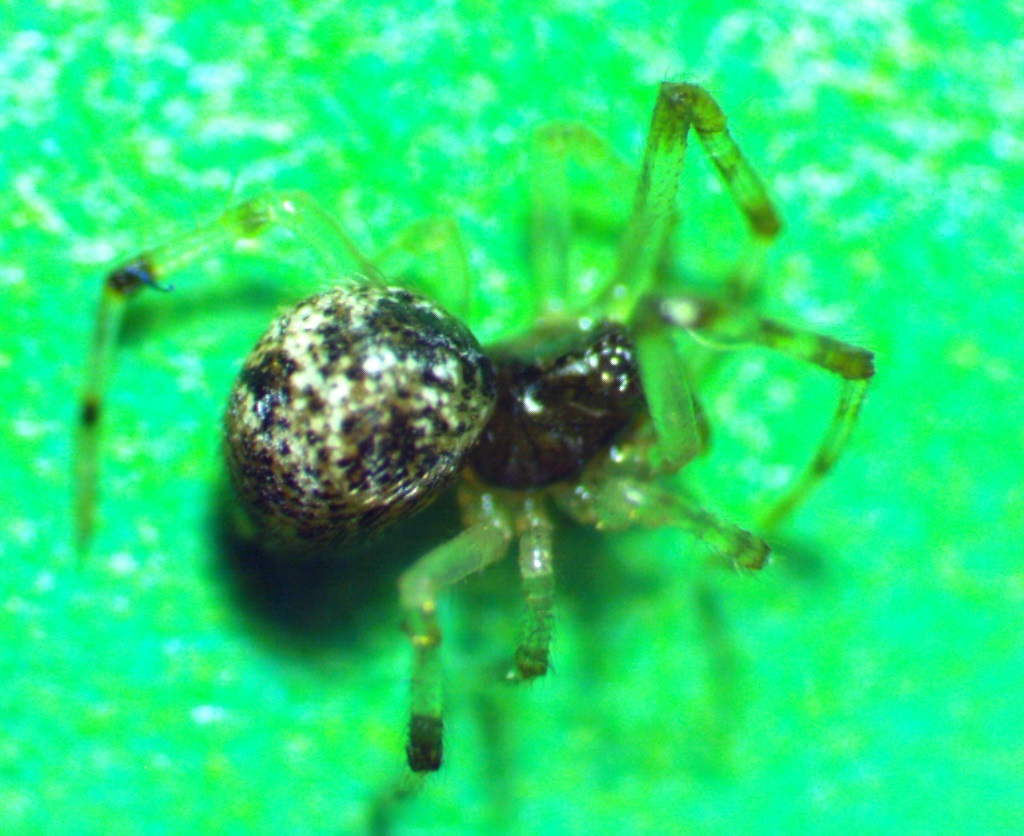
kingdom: Animalia
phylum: Arthropoda
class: Arachnida
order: Araneae
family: Theridiidae
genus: Parasteatoda
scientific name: Parasteatoda tepidariorum
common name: Common house spider
